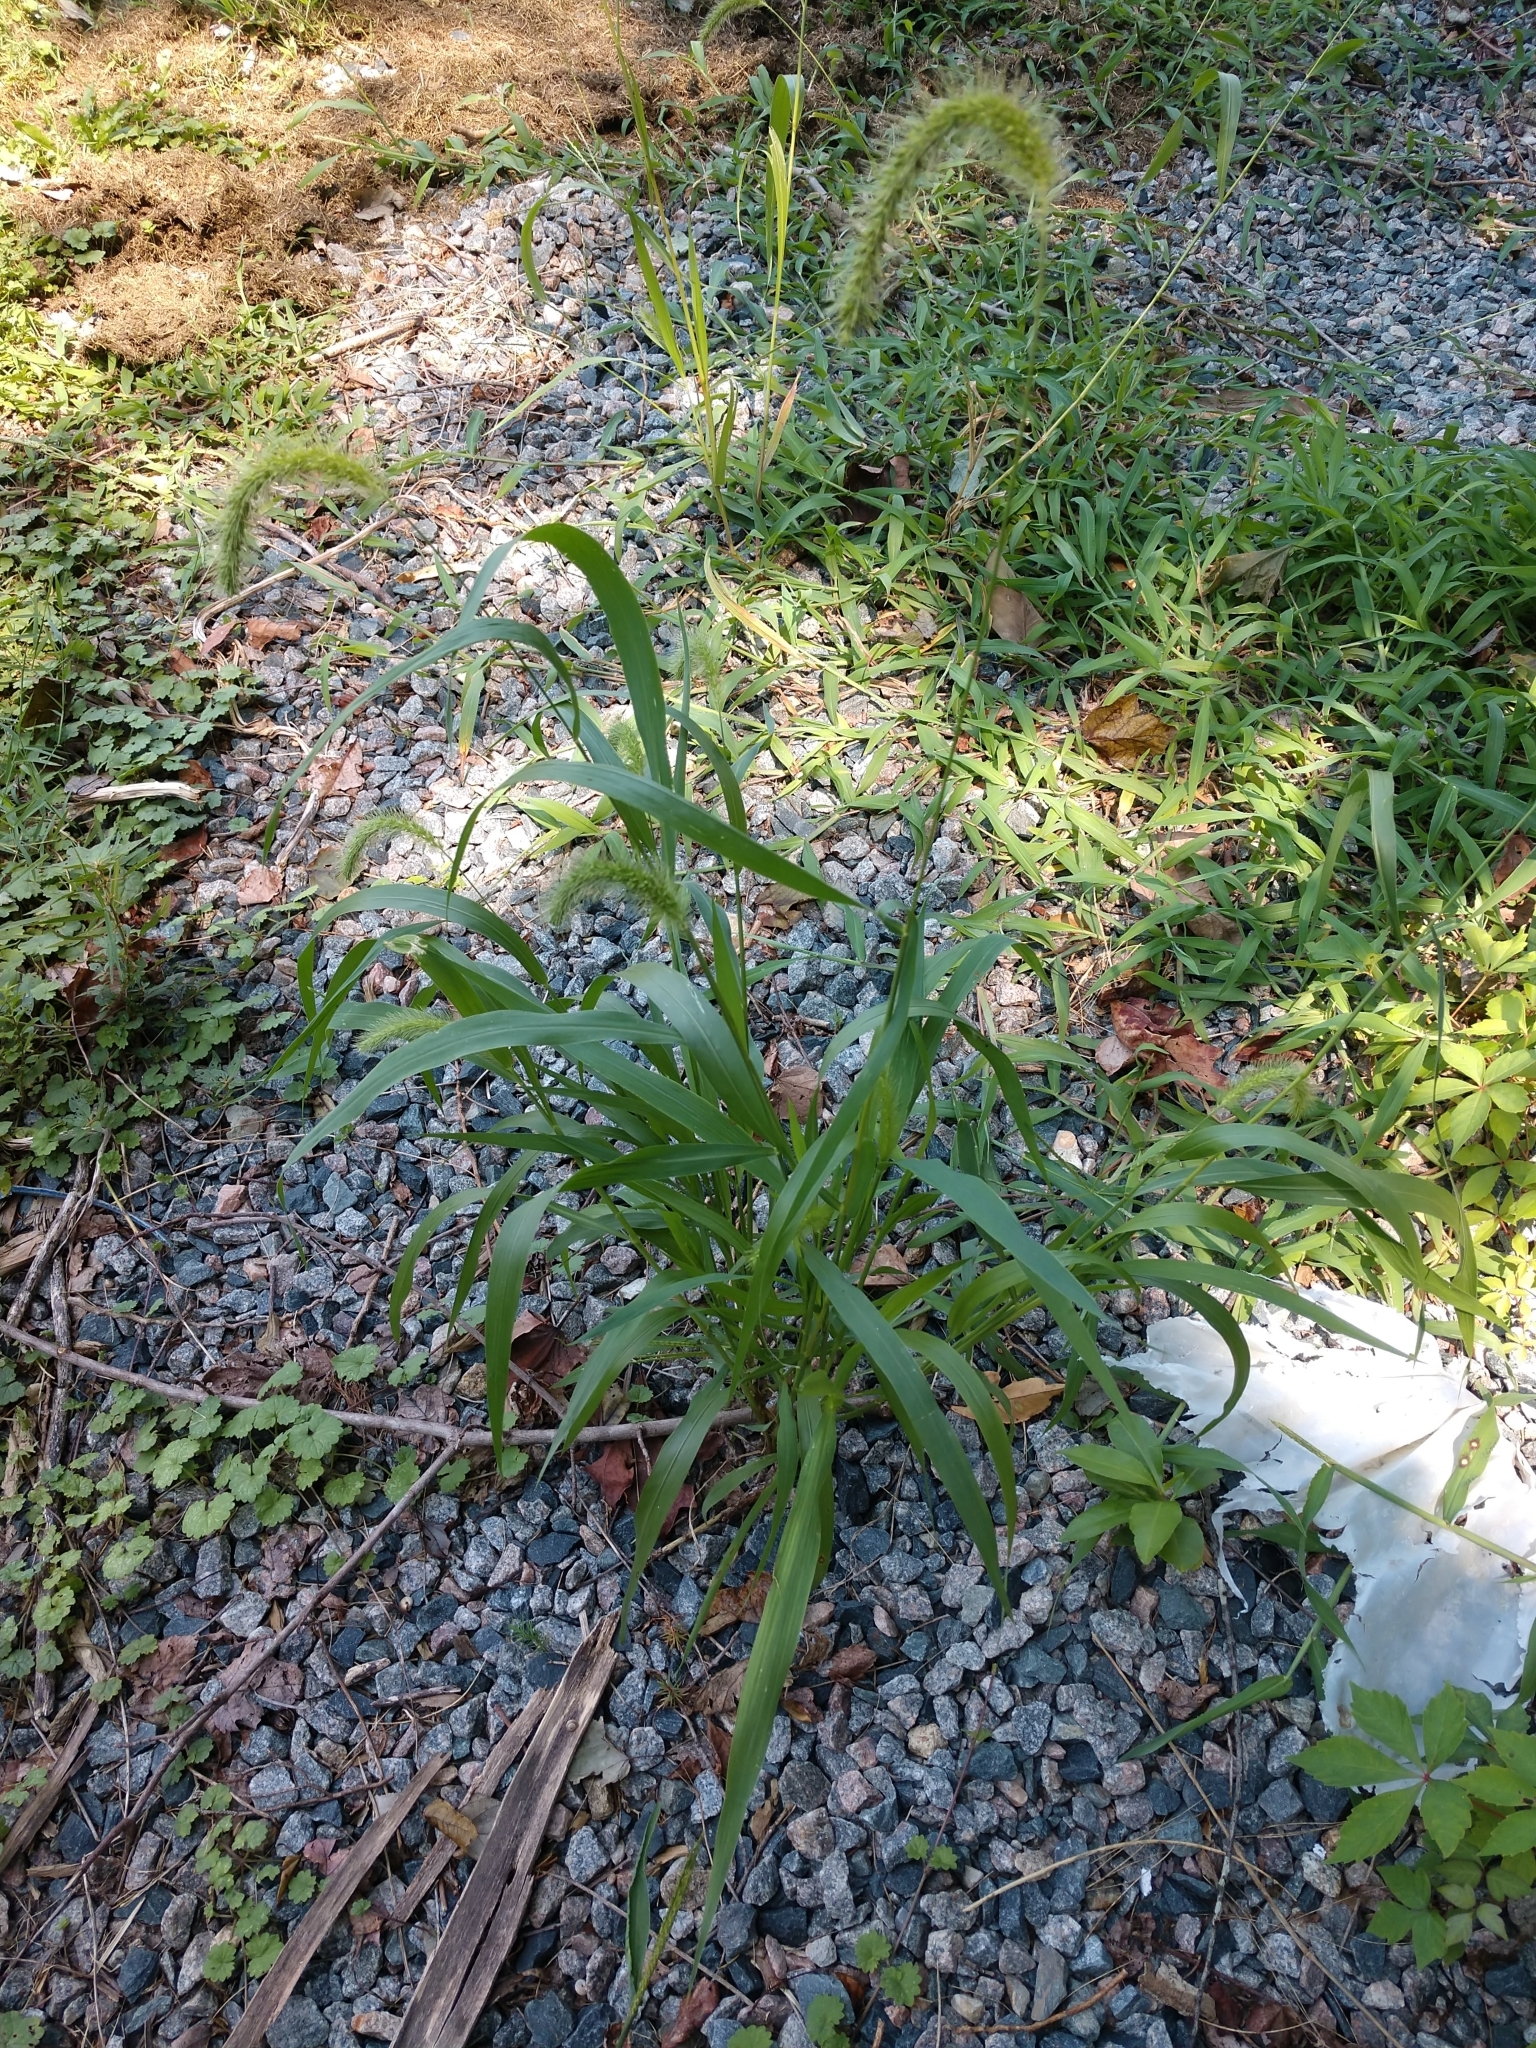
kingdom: Plantae
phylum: Tracheophyta
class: Liliopsida
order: Poales
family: Poaceae
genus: Setaria
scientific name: Setaria faberi
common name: Nodding bristle-grass
